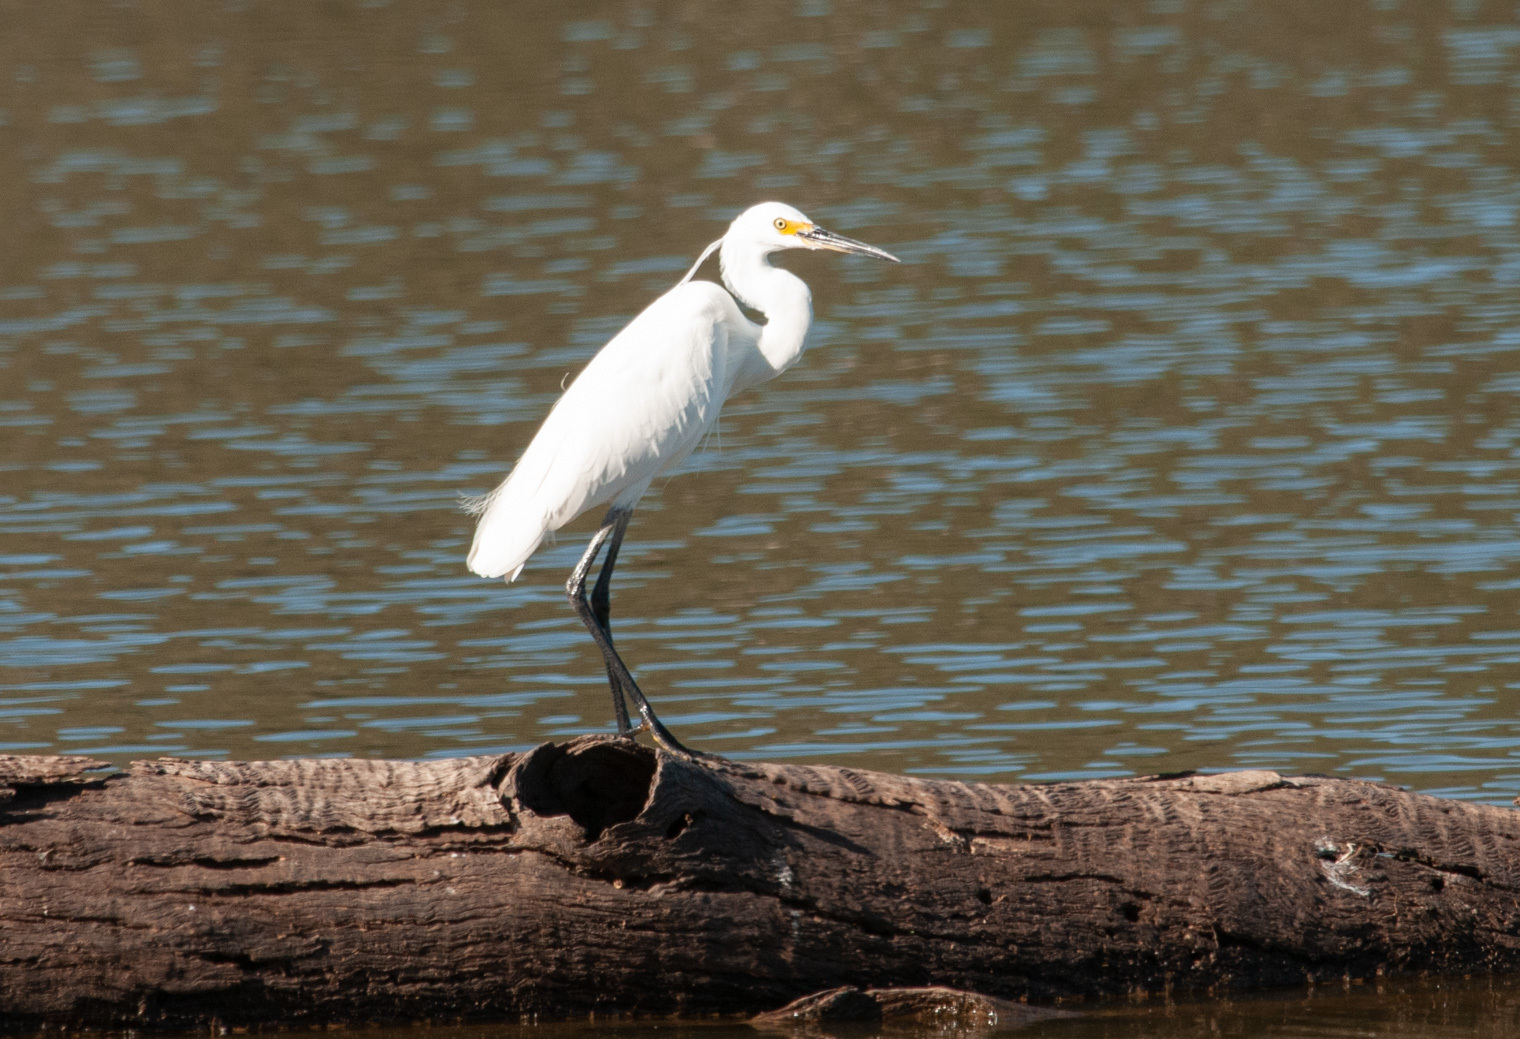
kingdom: Animalia
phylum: Chordata
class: Aves
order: Pelecaniformes
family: Ardeidae
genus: Egretta
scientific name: Egretta garzetta
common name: Little egret
